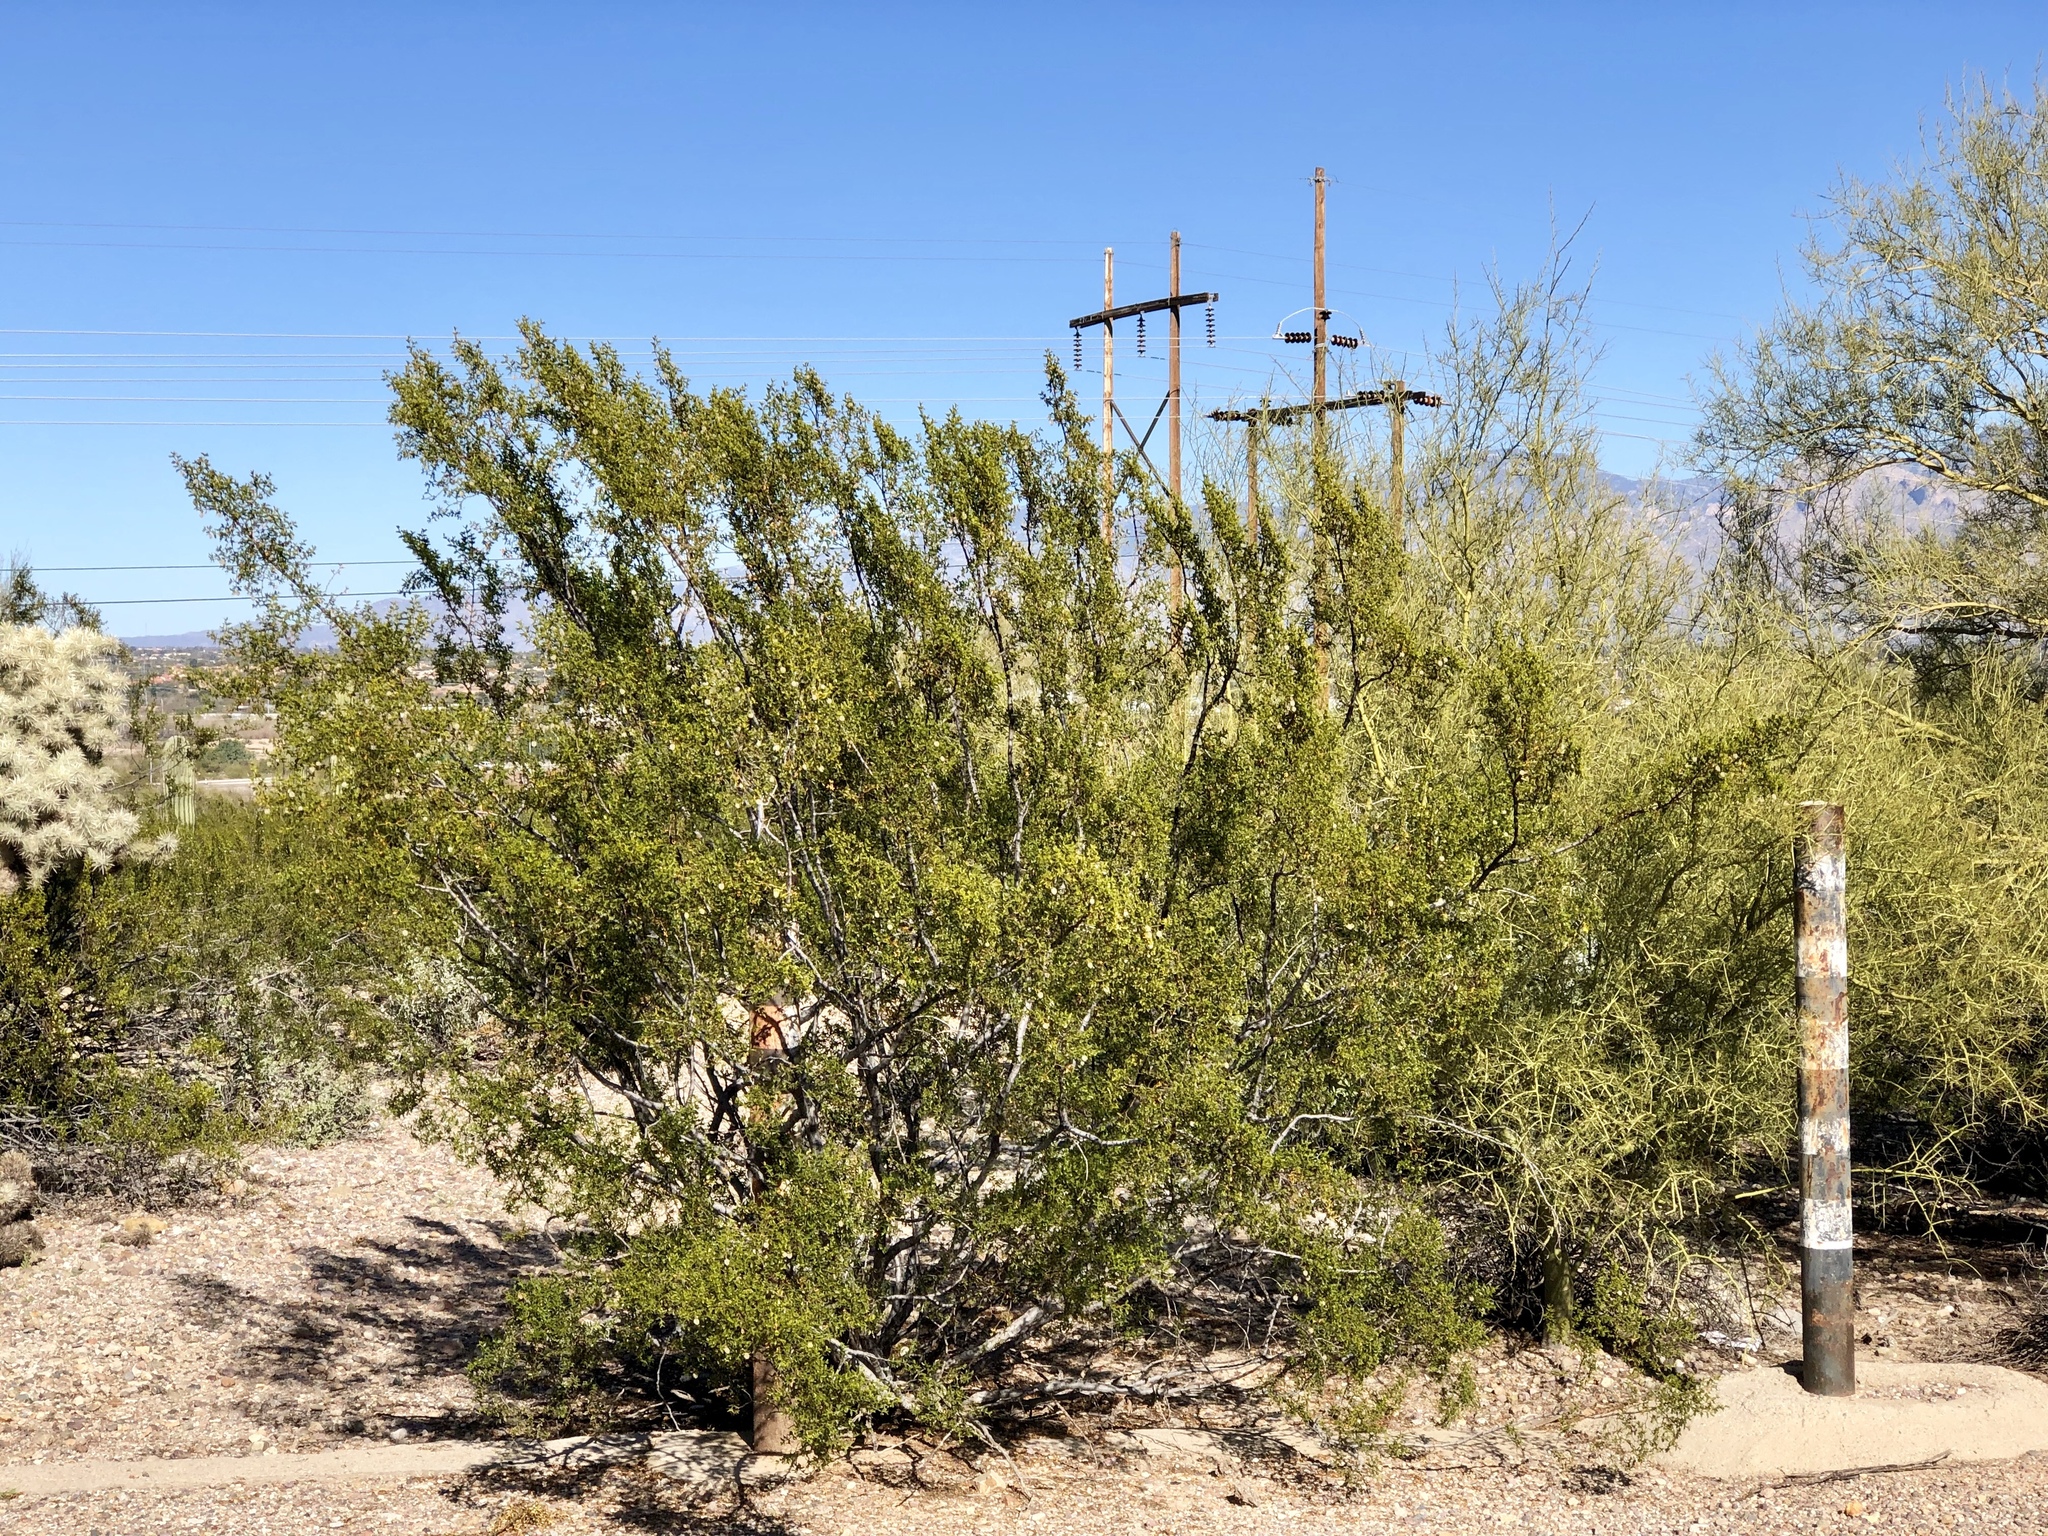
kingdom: Plantae
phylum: Tracheophyta
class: Magnoliopsida
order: Zygophyllales
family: Zygophyllaceae
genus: Larrea
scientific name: Larrea tridentata
